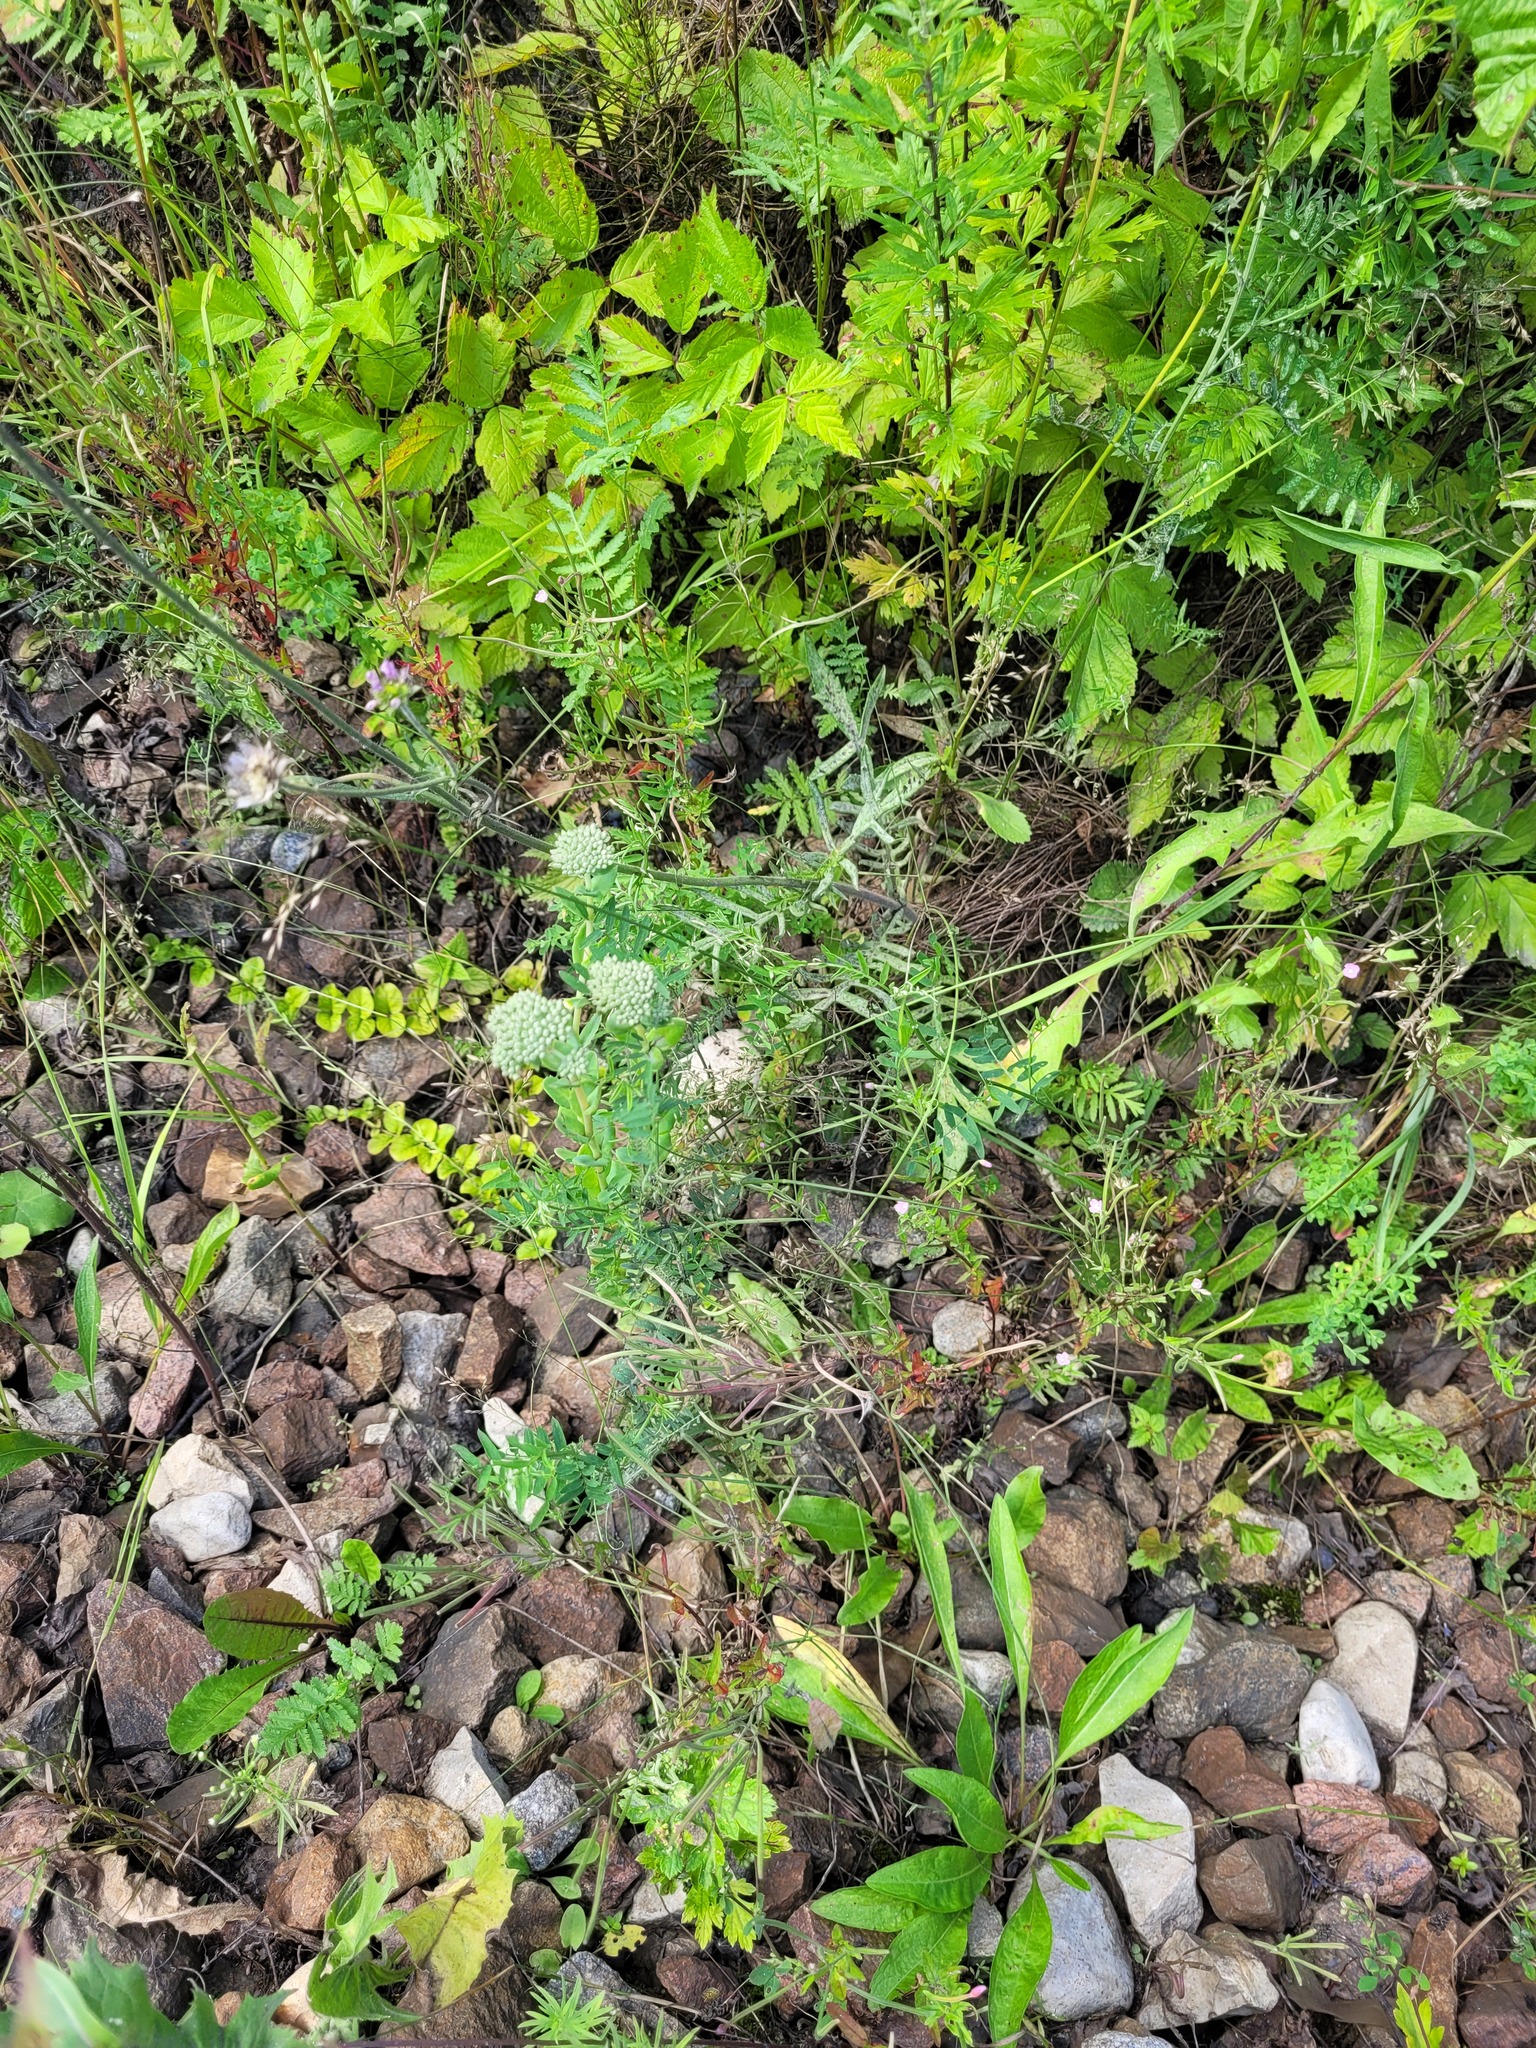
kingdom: Plantae
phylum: Tracheophyta
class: Magnoliopsida
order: Saxifragales
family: Crassulaceae
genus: Hylotelephium
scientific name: Hylotelephium maximum
